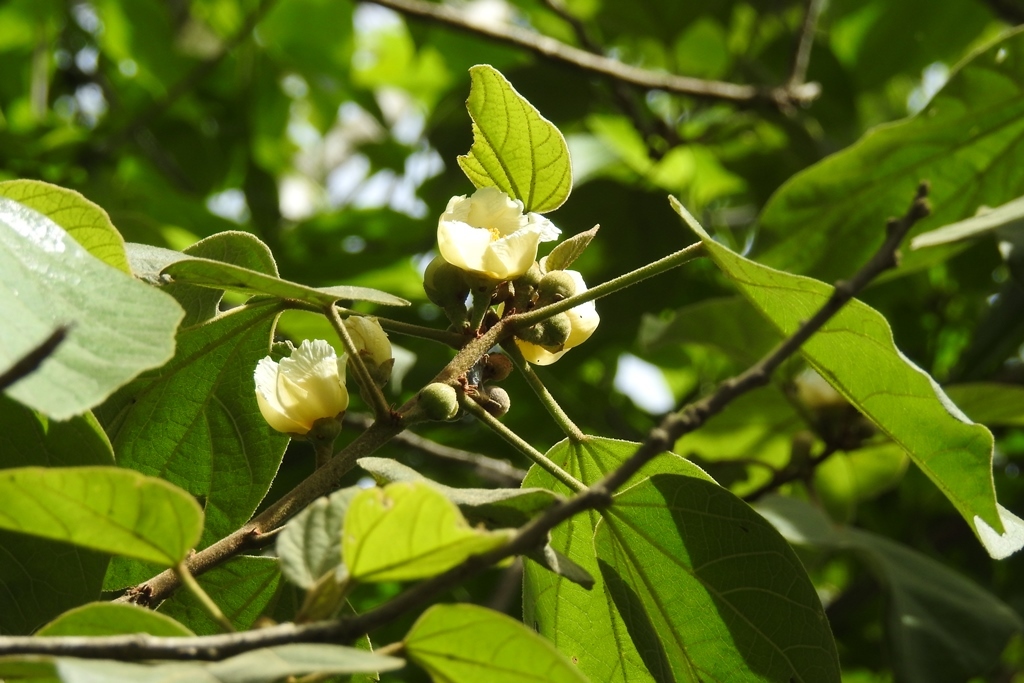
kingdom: Plantae
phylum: Tracheophyta
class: Magnoliopsida
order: Malvales
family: Malvaceae
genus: Hampea
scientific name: Hampea mexicana
